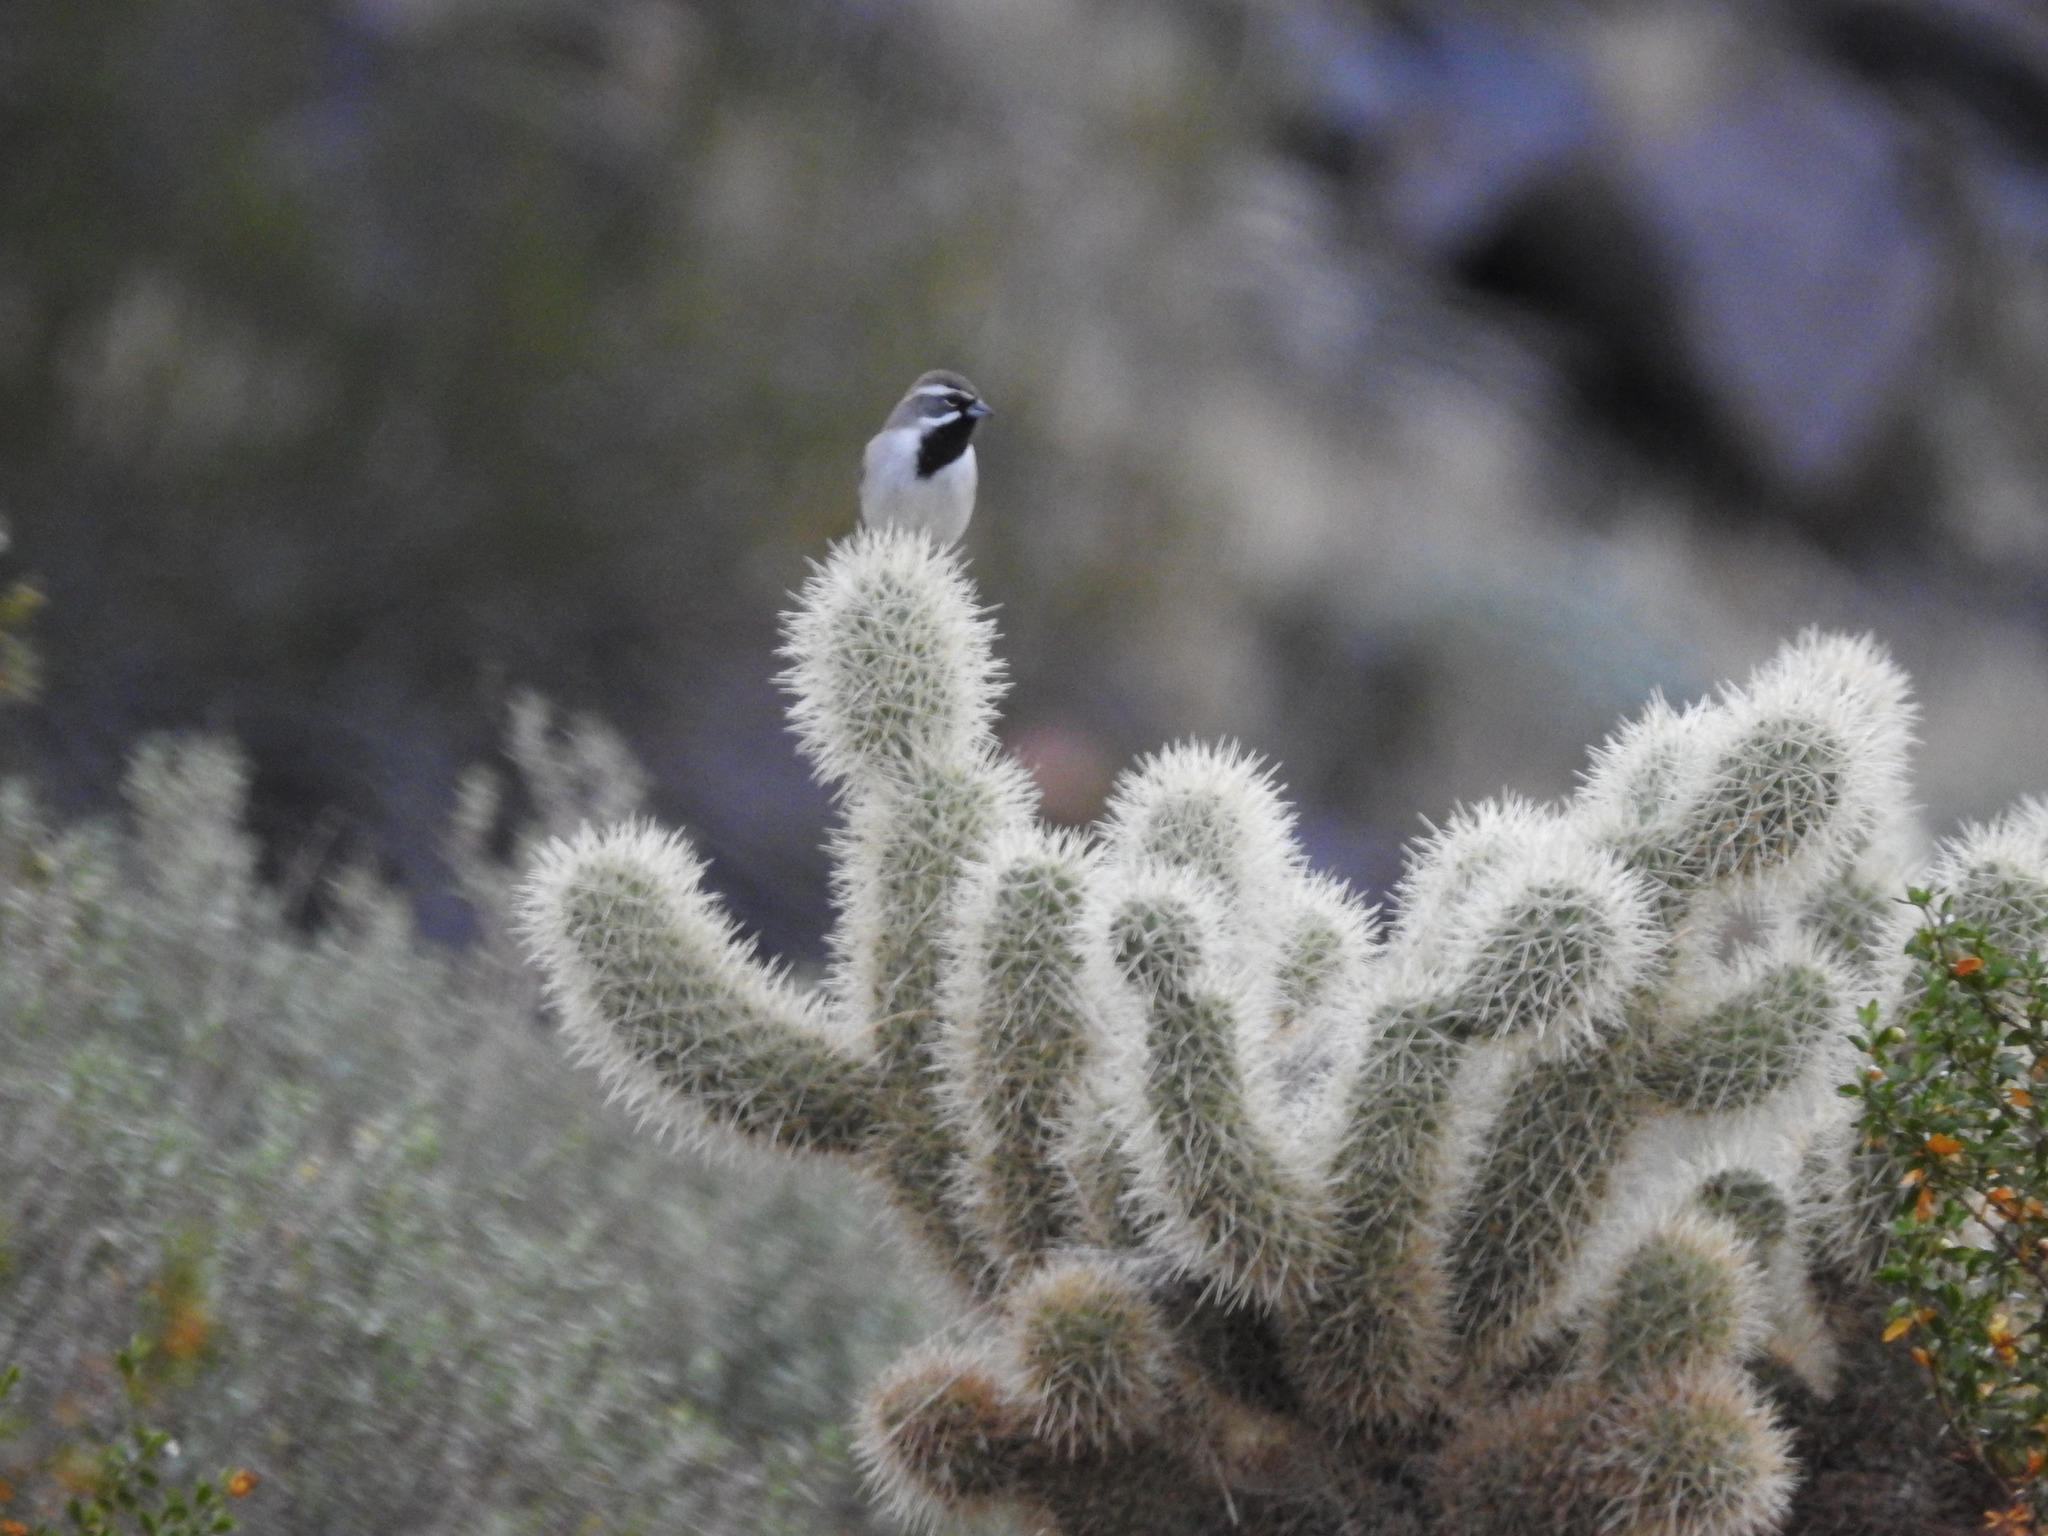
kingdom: Animalia
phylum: Chordata
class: Aves
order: Passeriformes
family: Passerellidae
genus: Amphispiza
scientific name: Amphispiza bilineata
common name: Black-throated sparrow
